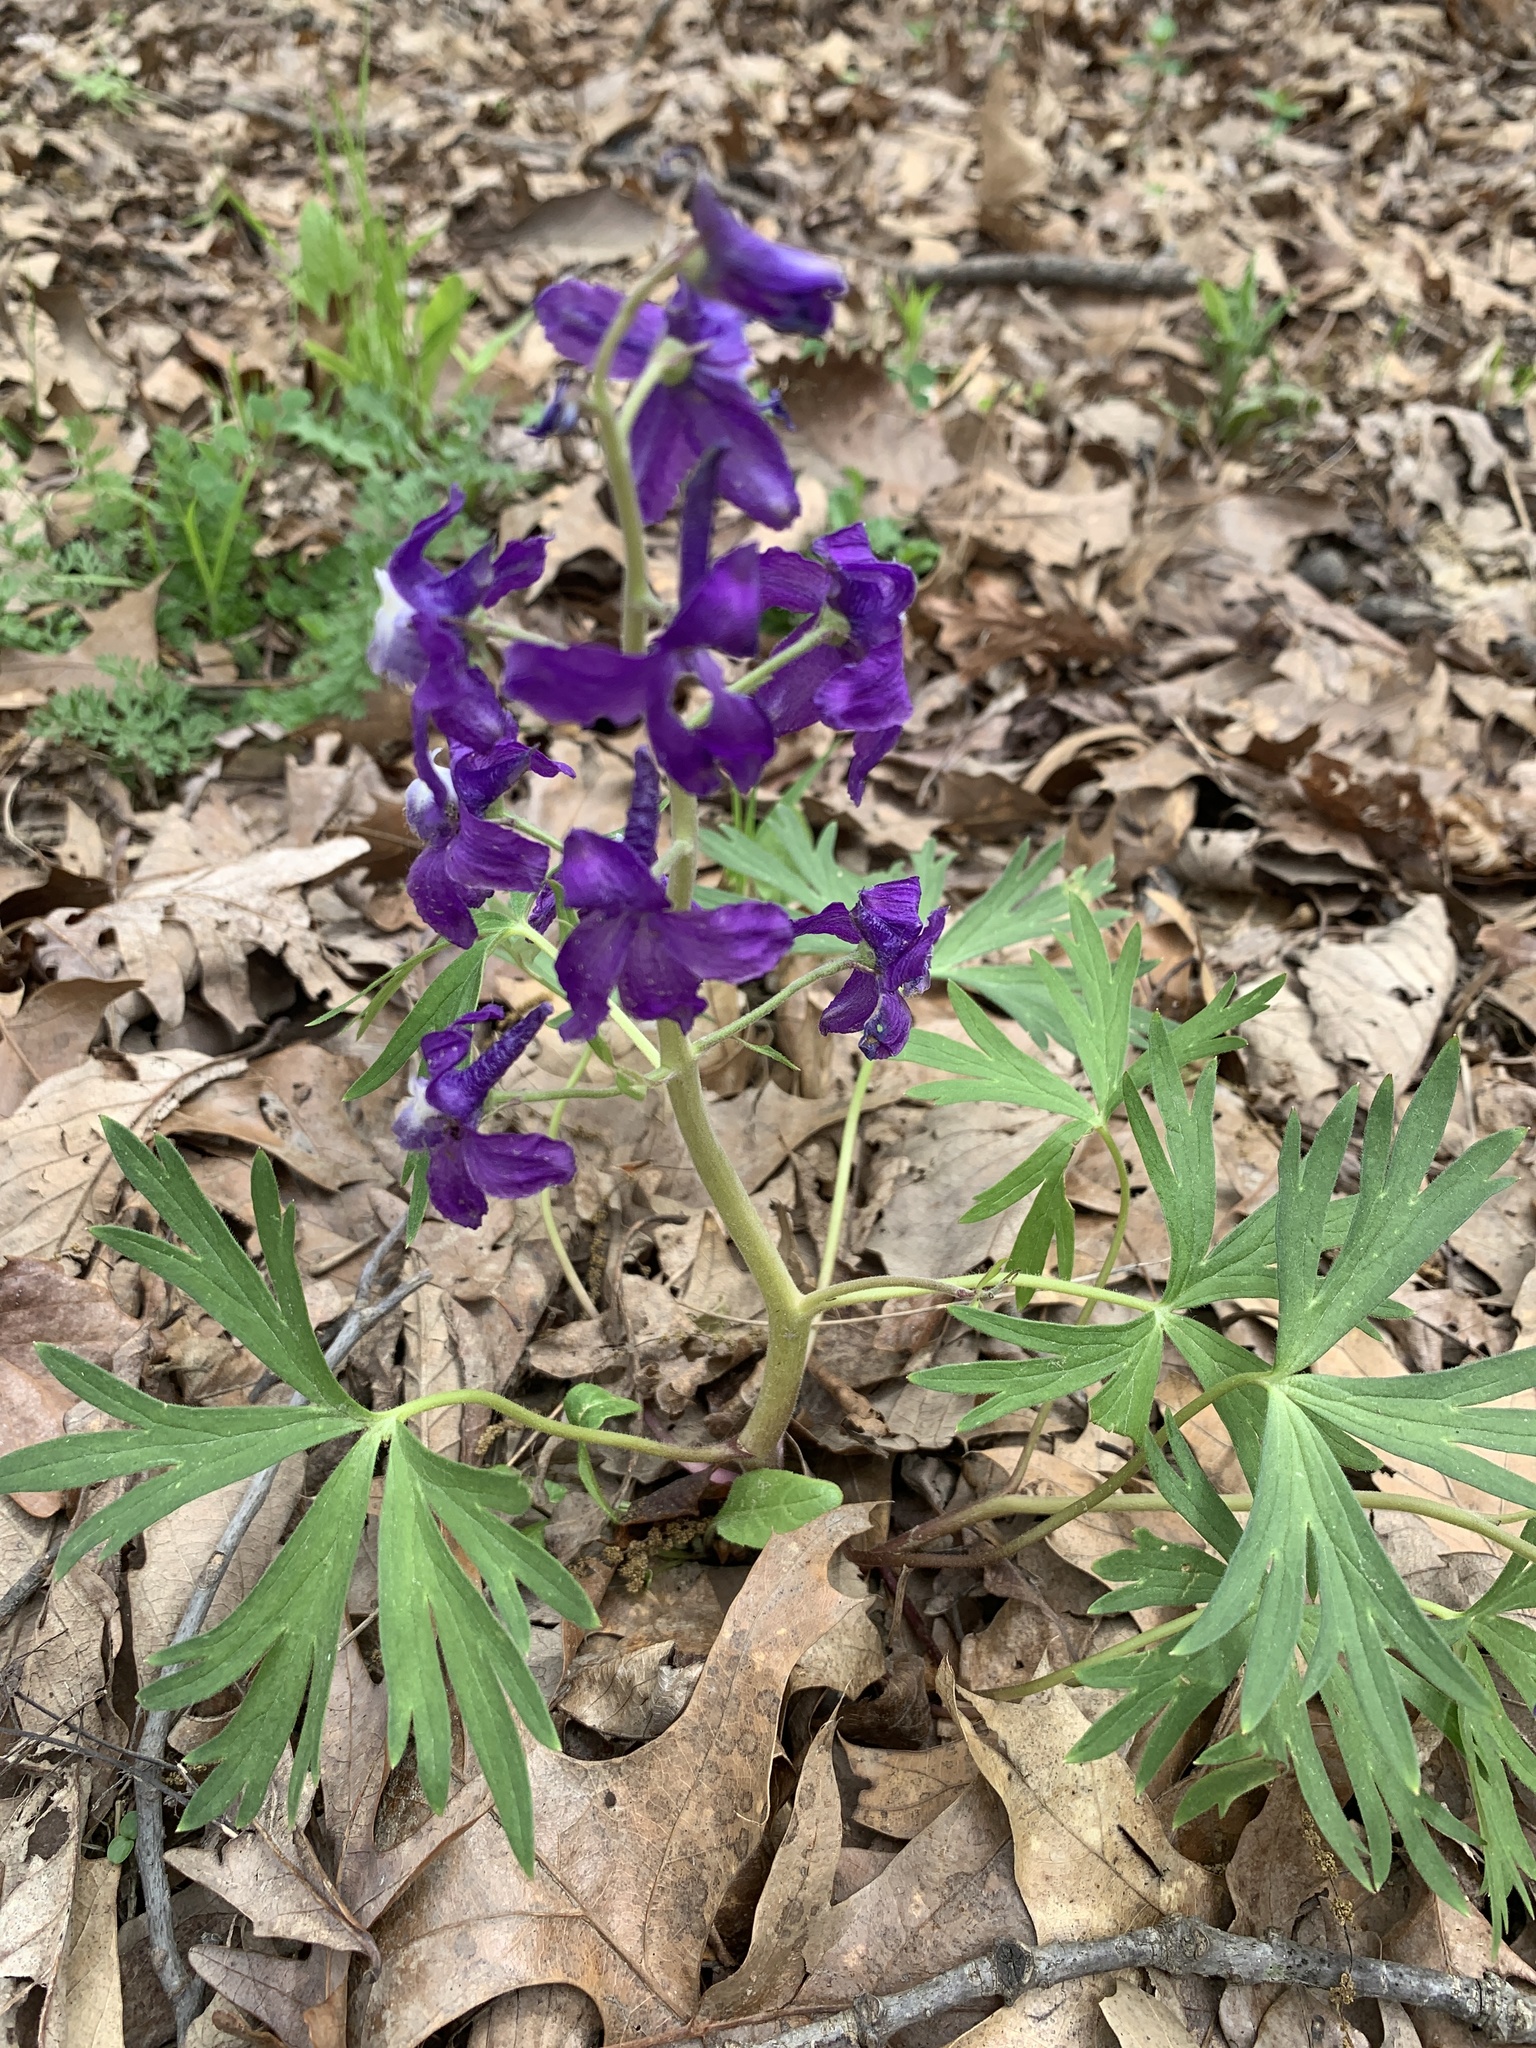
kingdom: Plantae
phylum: Tracheophyta
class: Magnoliopsida
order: Ranunculales
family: Ranunculaceae
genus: Delphinium
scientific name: Delphinium tricorne
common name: Dwarf larkspur
